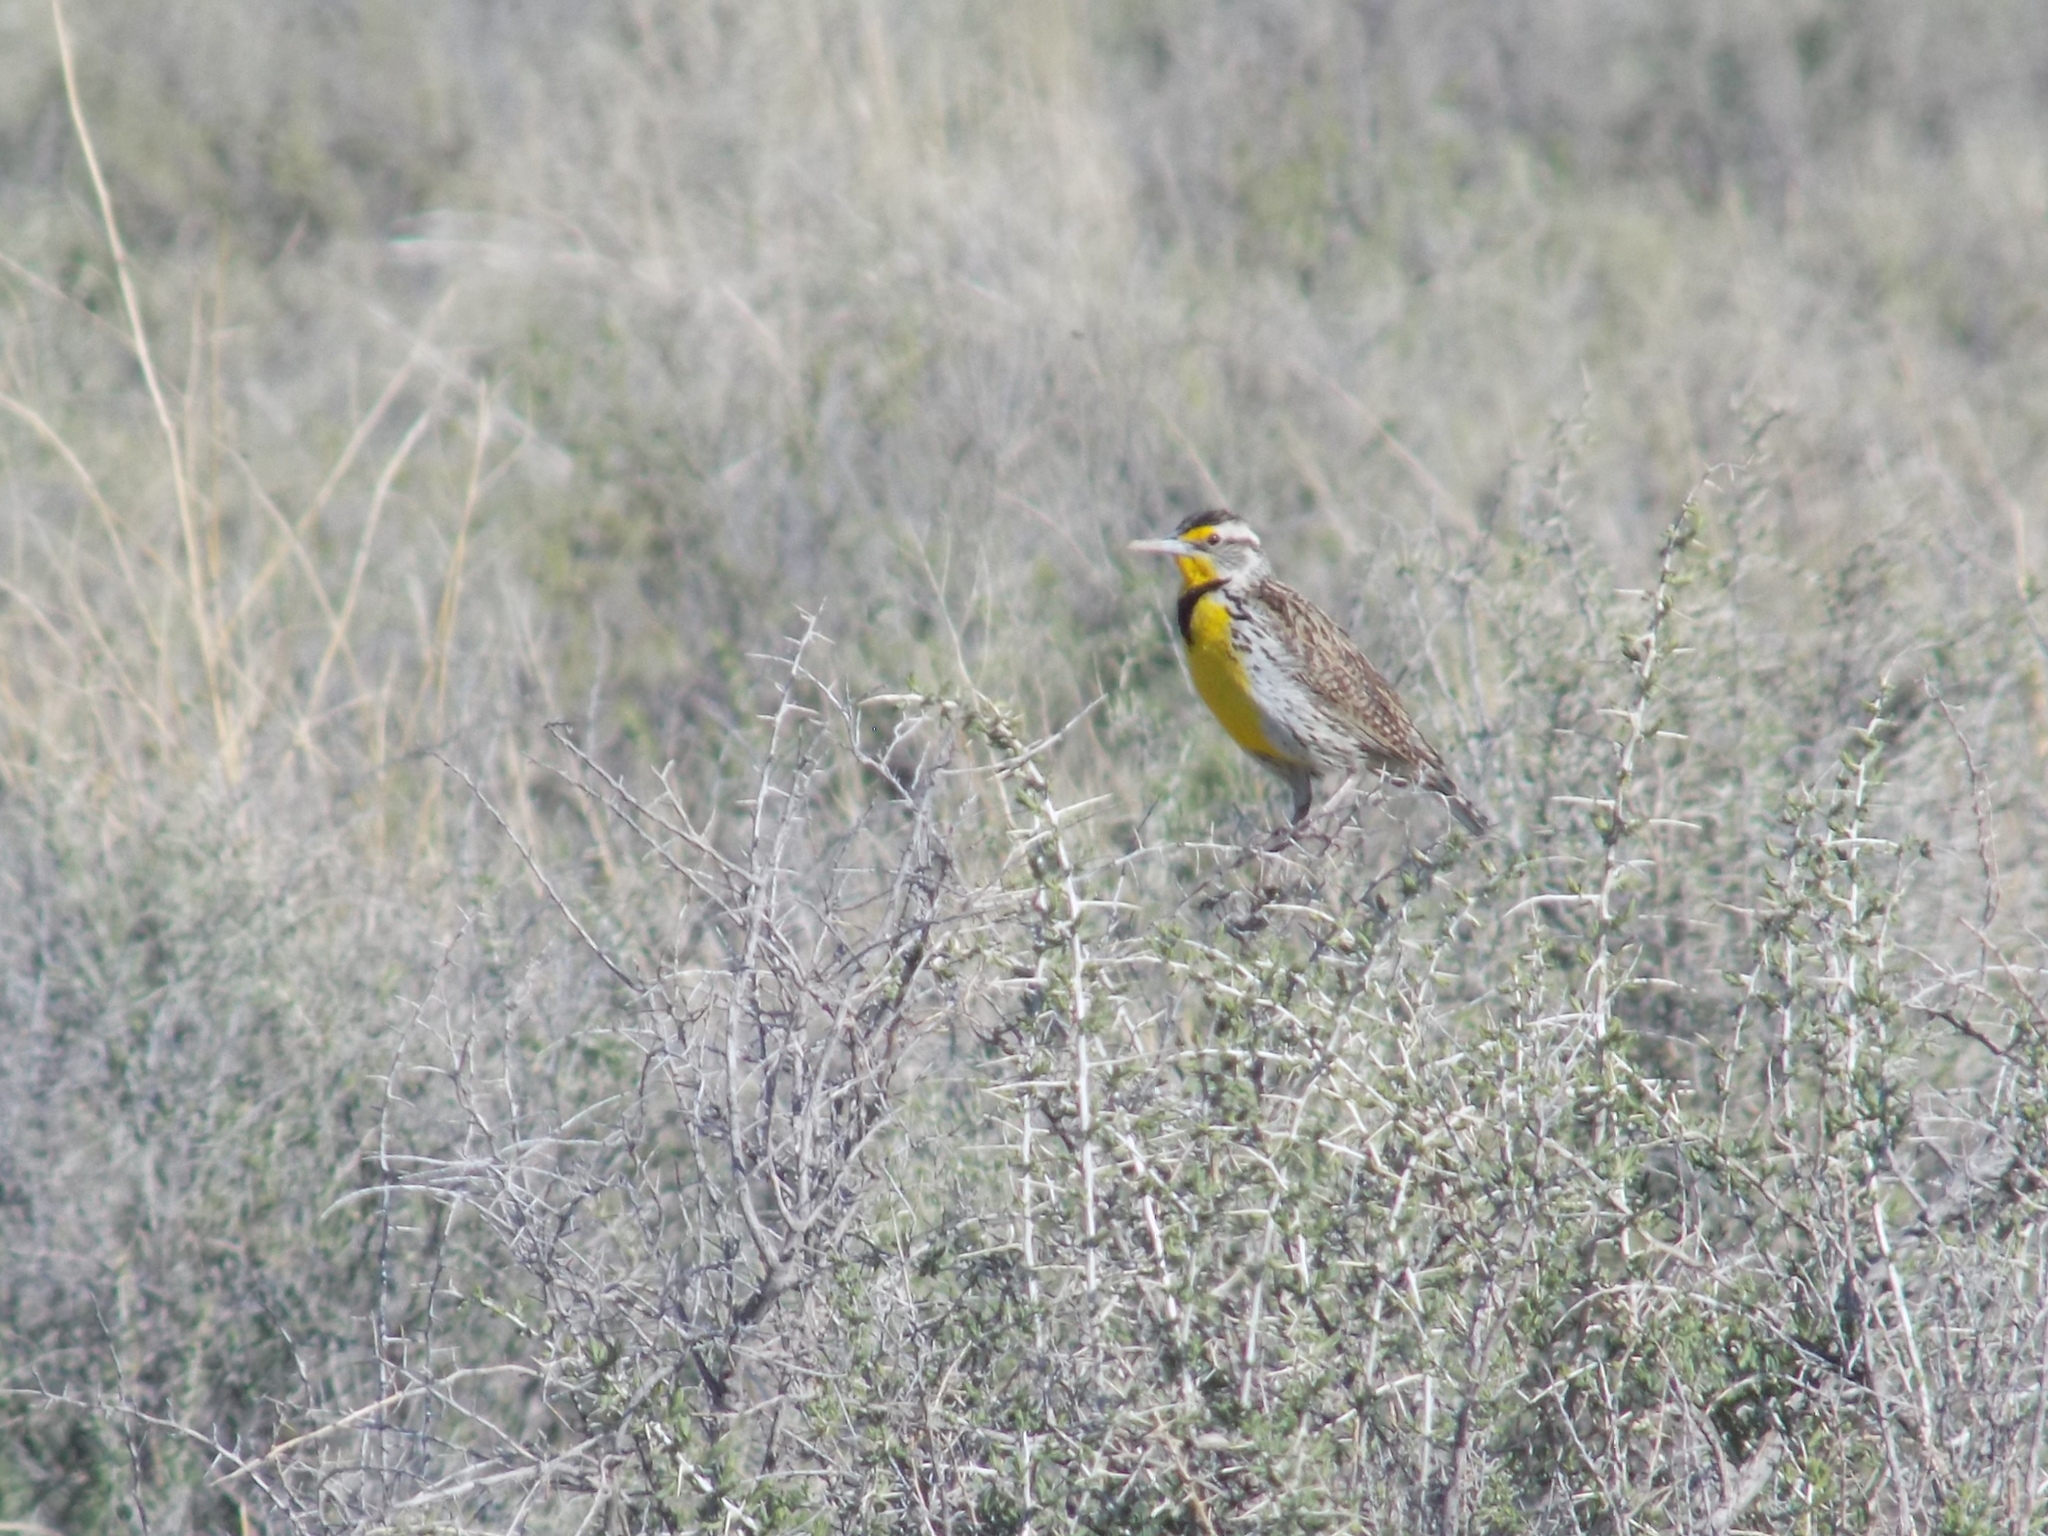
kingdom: Animalia
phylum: Chordata
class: Aves
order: Passeriformes
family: Icteridae
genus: Sturnella
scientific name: Sturnella neglecta
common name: Western meadowlark
